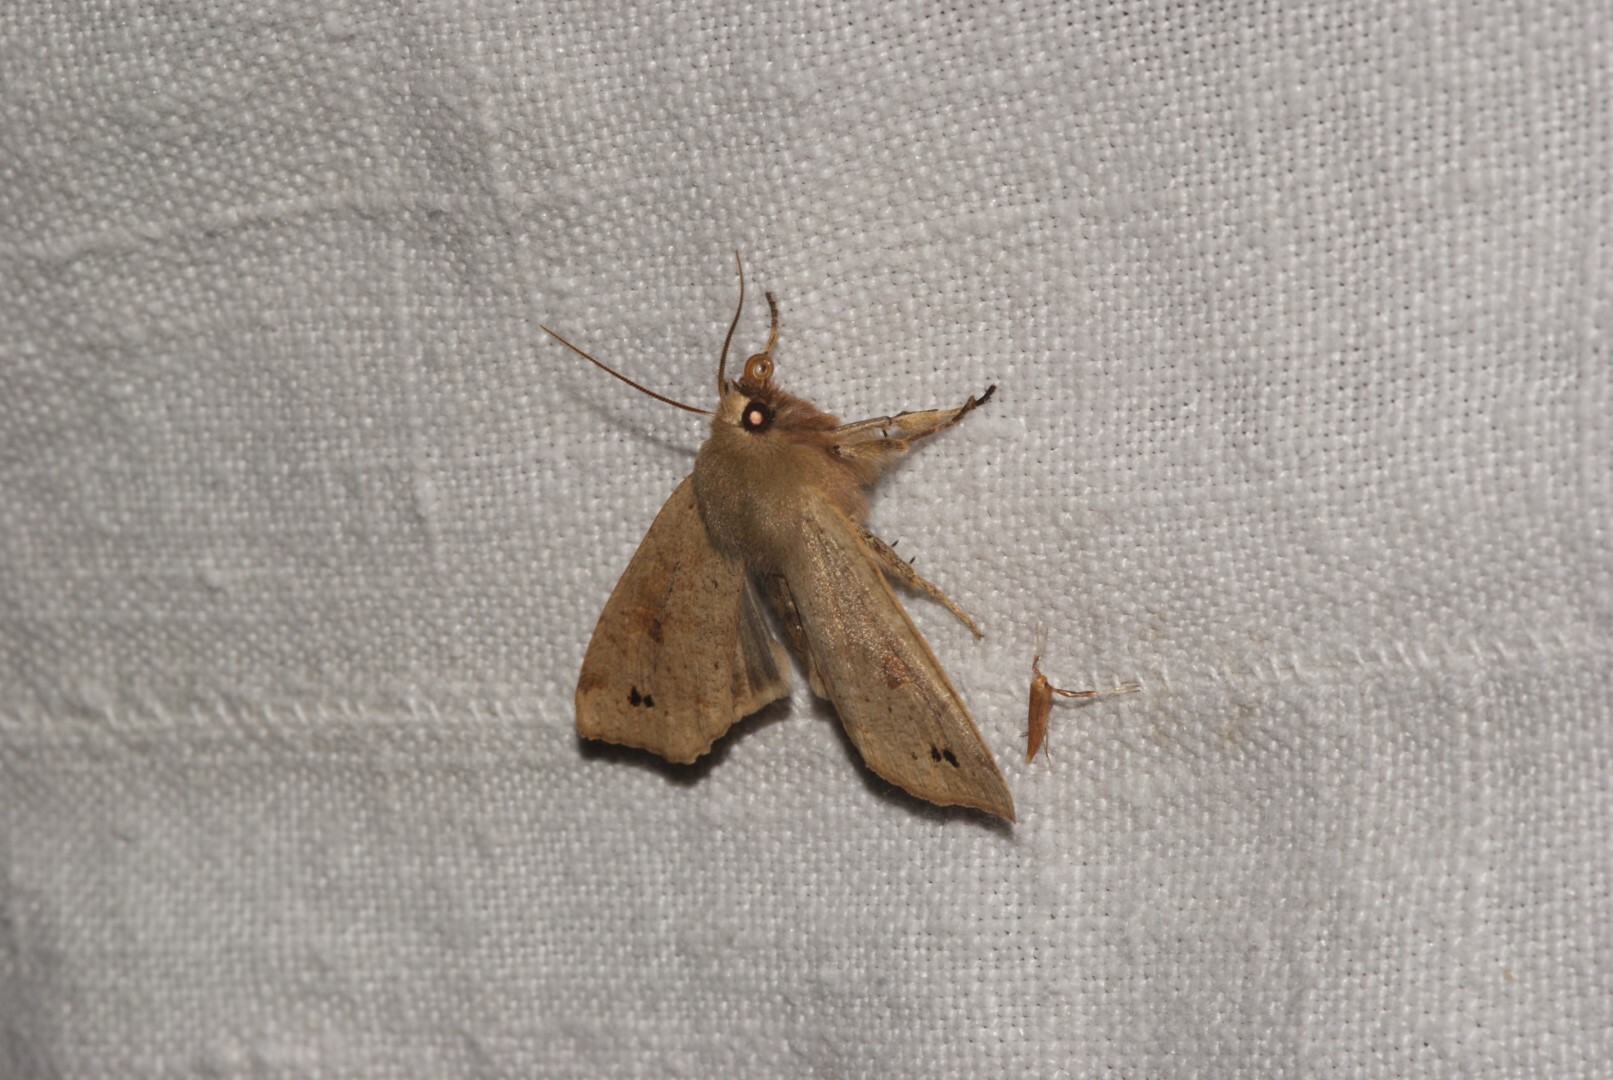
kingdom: Animalia
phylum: Arthropoda
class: Insecta
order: Lepidoptera
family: Noctuidae
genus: Anorthoa
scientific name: Anorthoa munda
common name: Twin-spotted quaker
